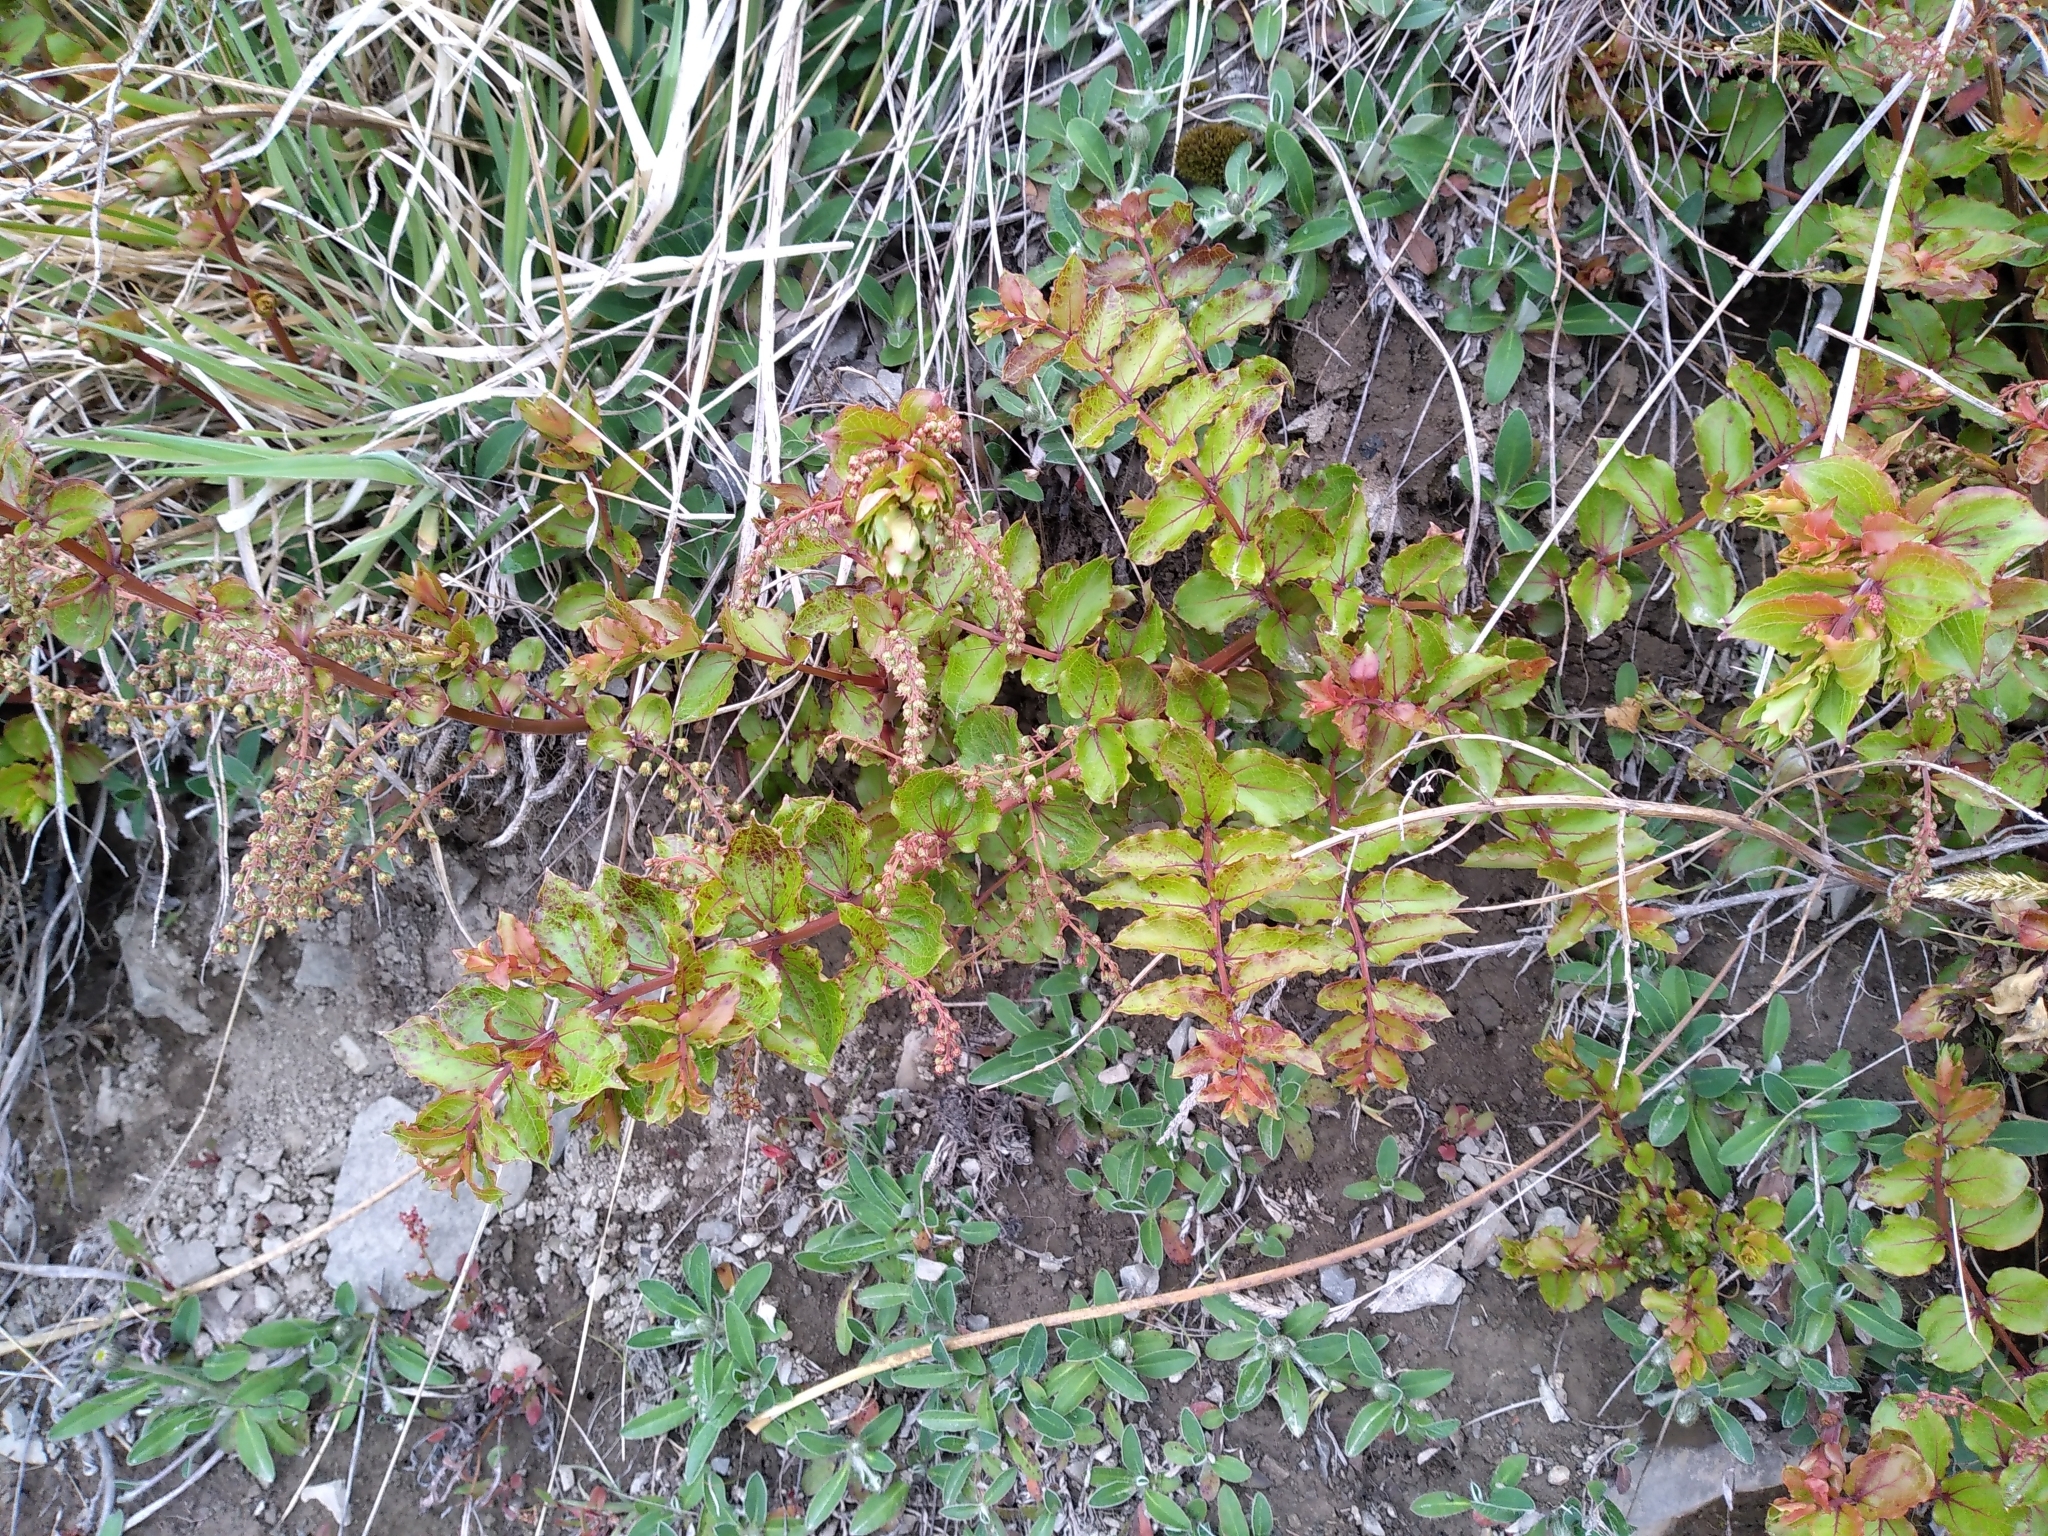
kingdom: Plantae
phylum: Tracheophyta
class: Magnoliopsida
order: Cucurbitales
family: Coriariaceae
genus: Coriaria
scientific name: Coriaria sarmentosa
